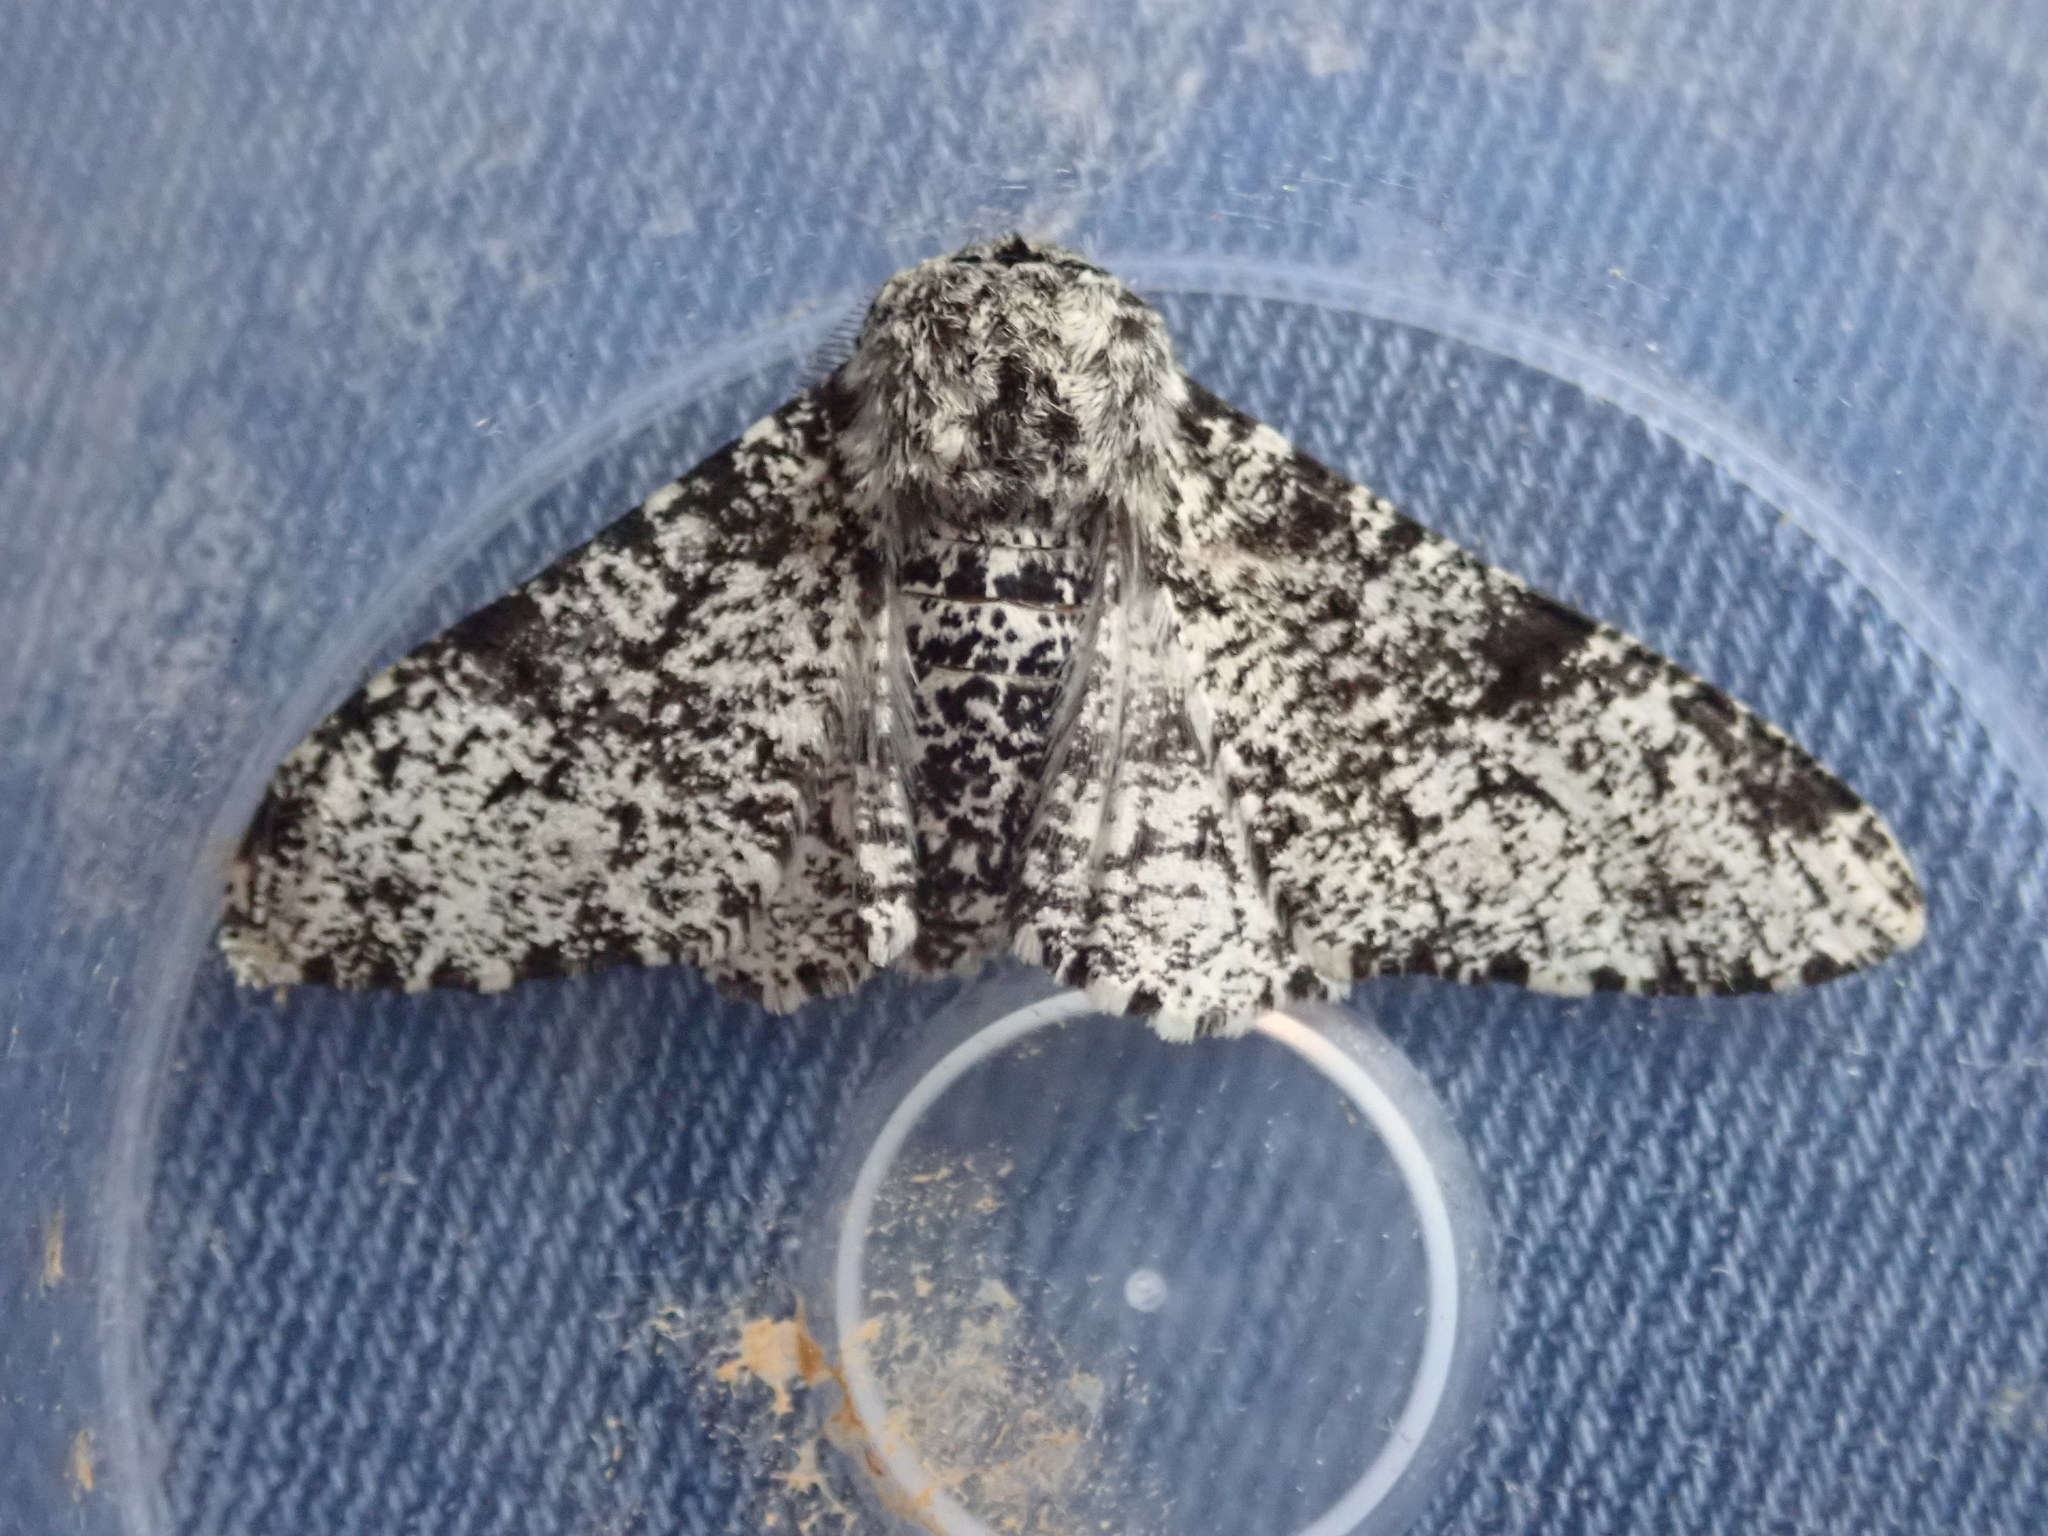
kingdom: Animalia
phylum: Arthropoda
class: Insecta
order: Lepidoptera
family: Geometridae
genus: Biston
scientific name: Biston betularia
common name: Peppered moth
